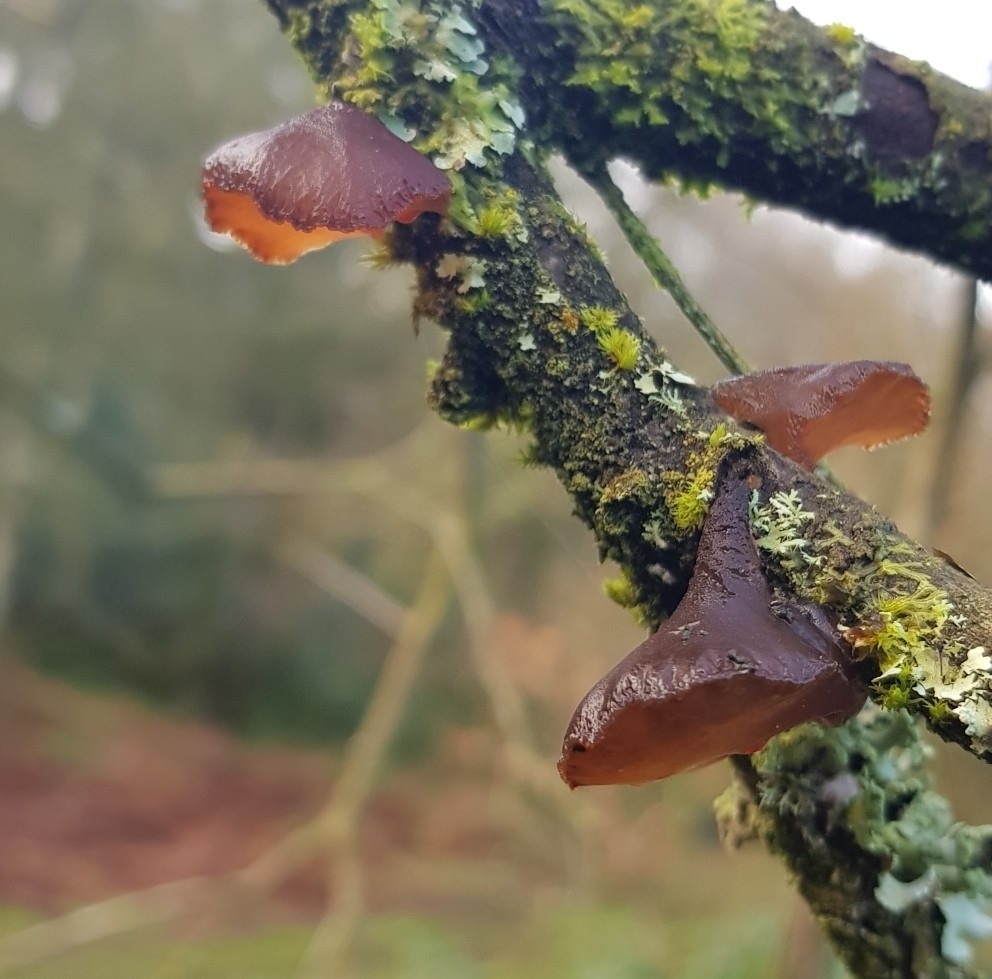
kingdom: Fungi
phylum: Basidiomycota
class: Agaricomycetes
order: Auriculariales
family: Auriculariaceae
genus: Exidia
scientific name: Exidia recisa
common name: Amber jelly
